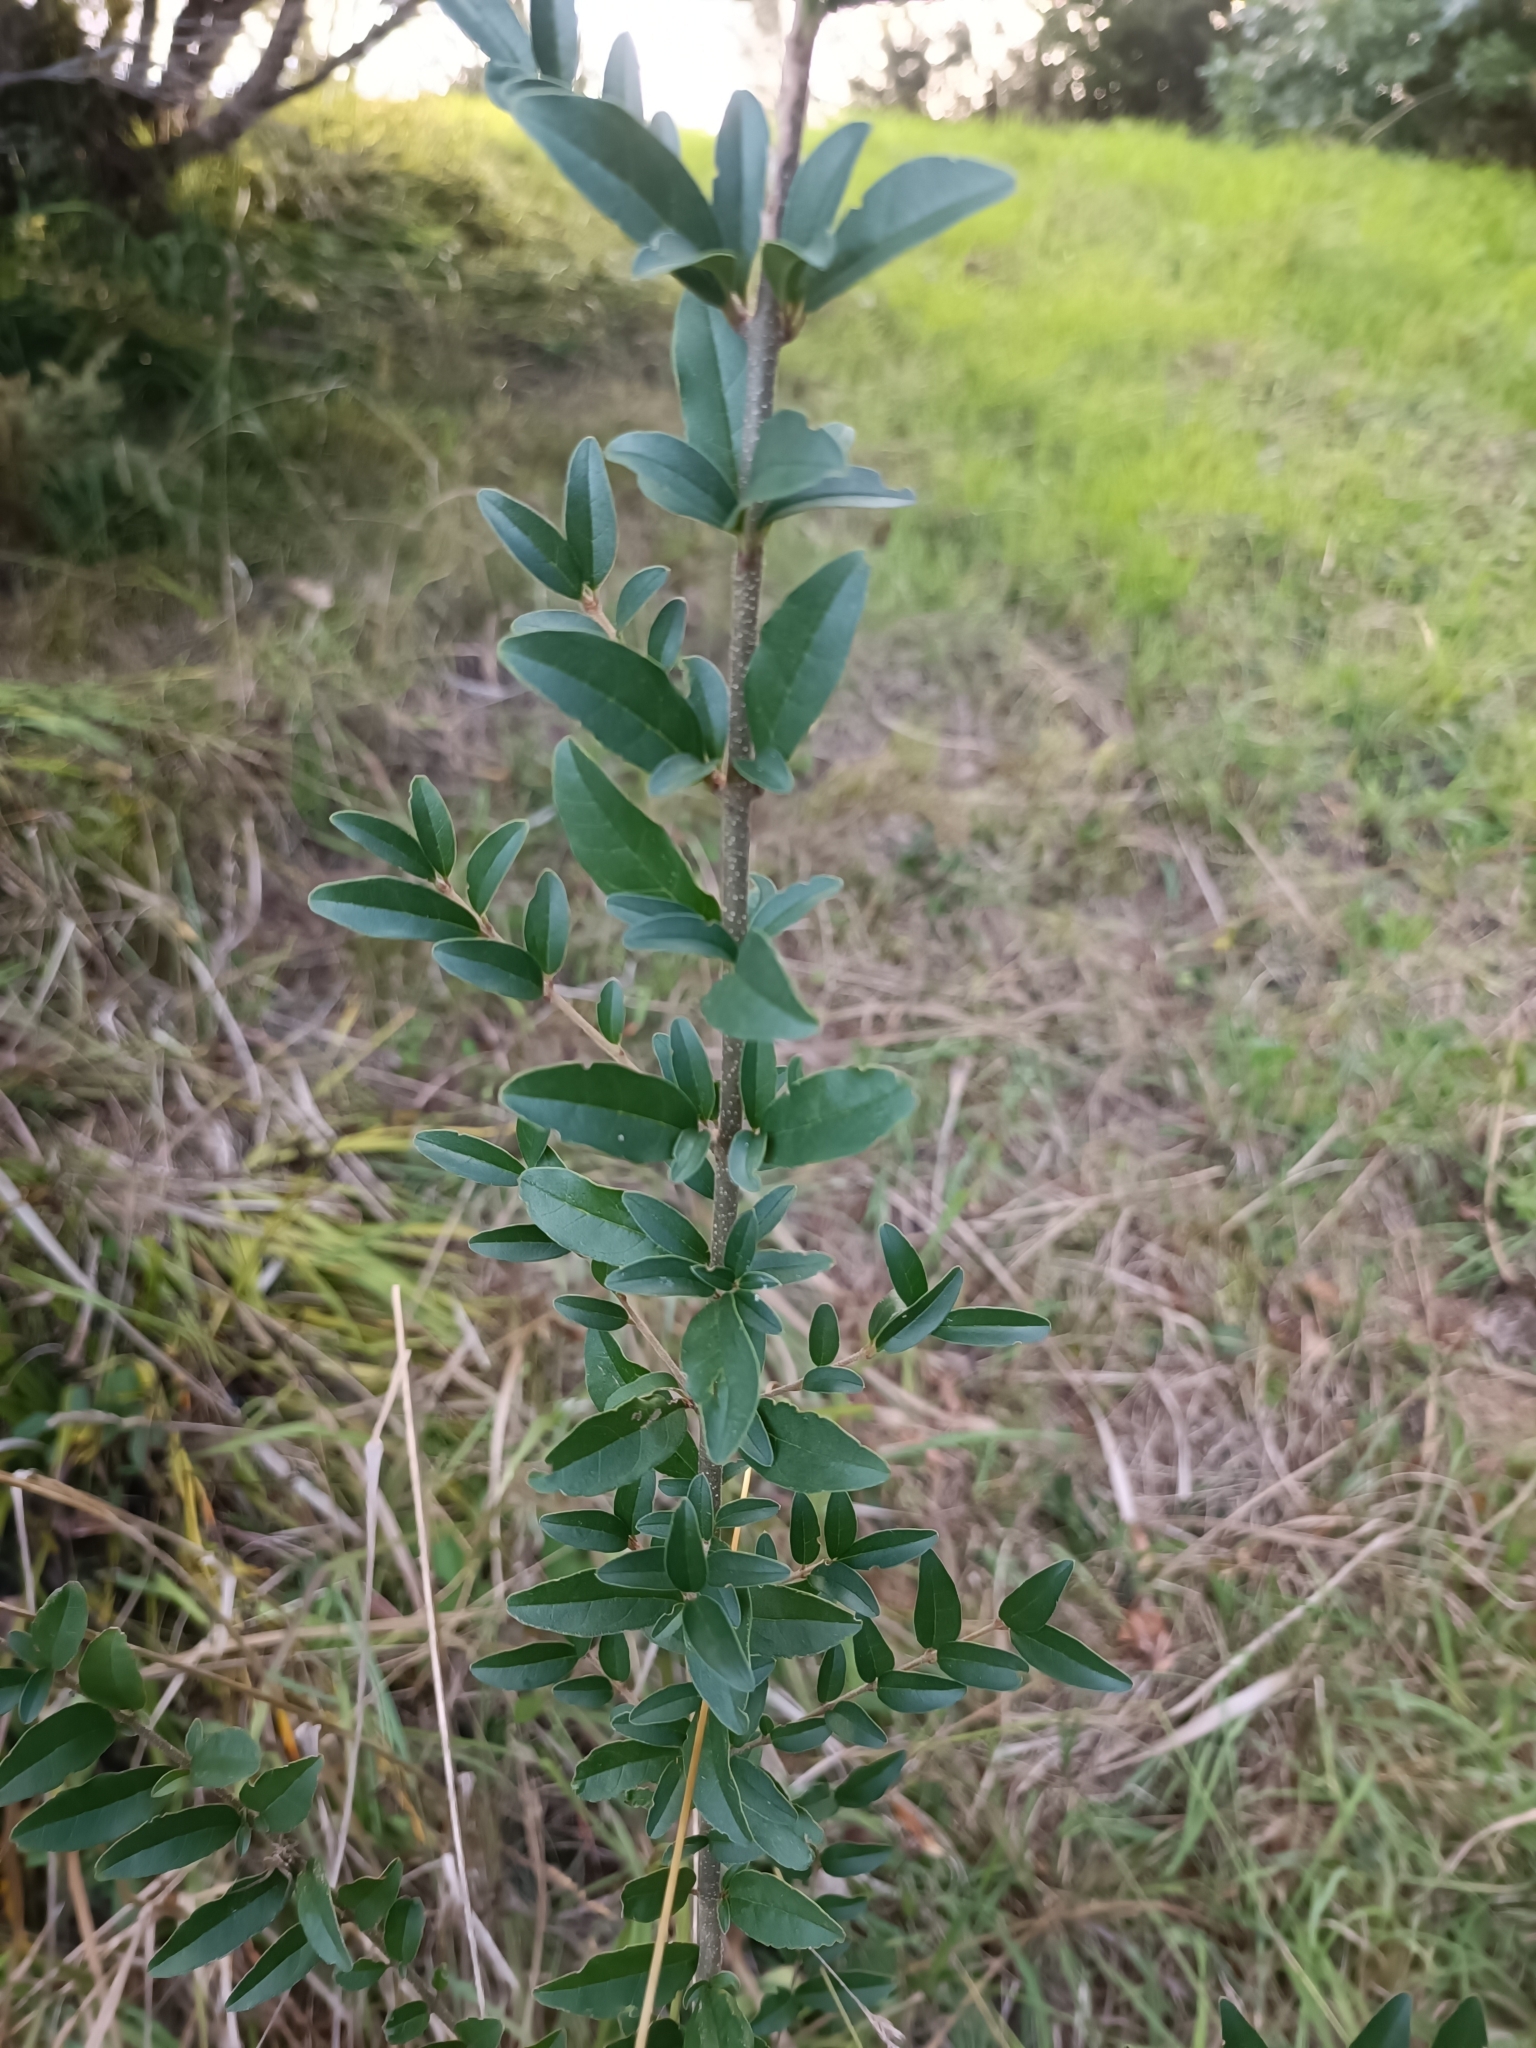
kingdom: Plantae
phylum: Tracheophyta
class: Magnoliopsida
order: Lamiales
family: Oleaceae
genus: Ligustrum
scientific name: Ligustrum sinense
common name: Chinese privet
